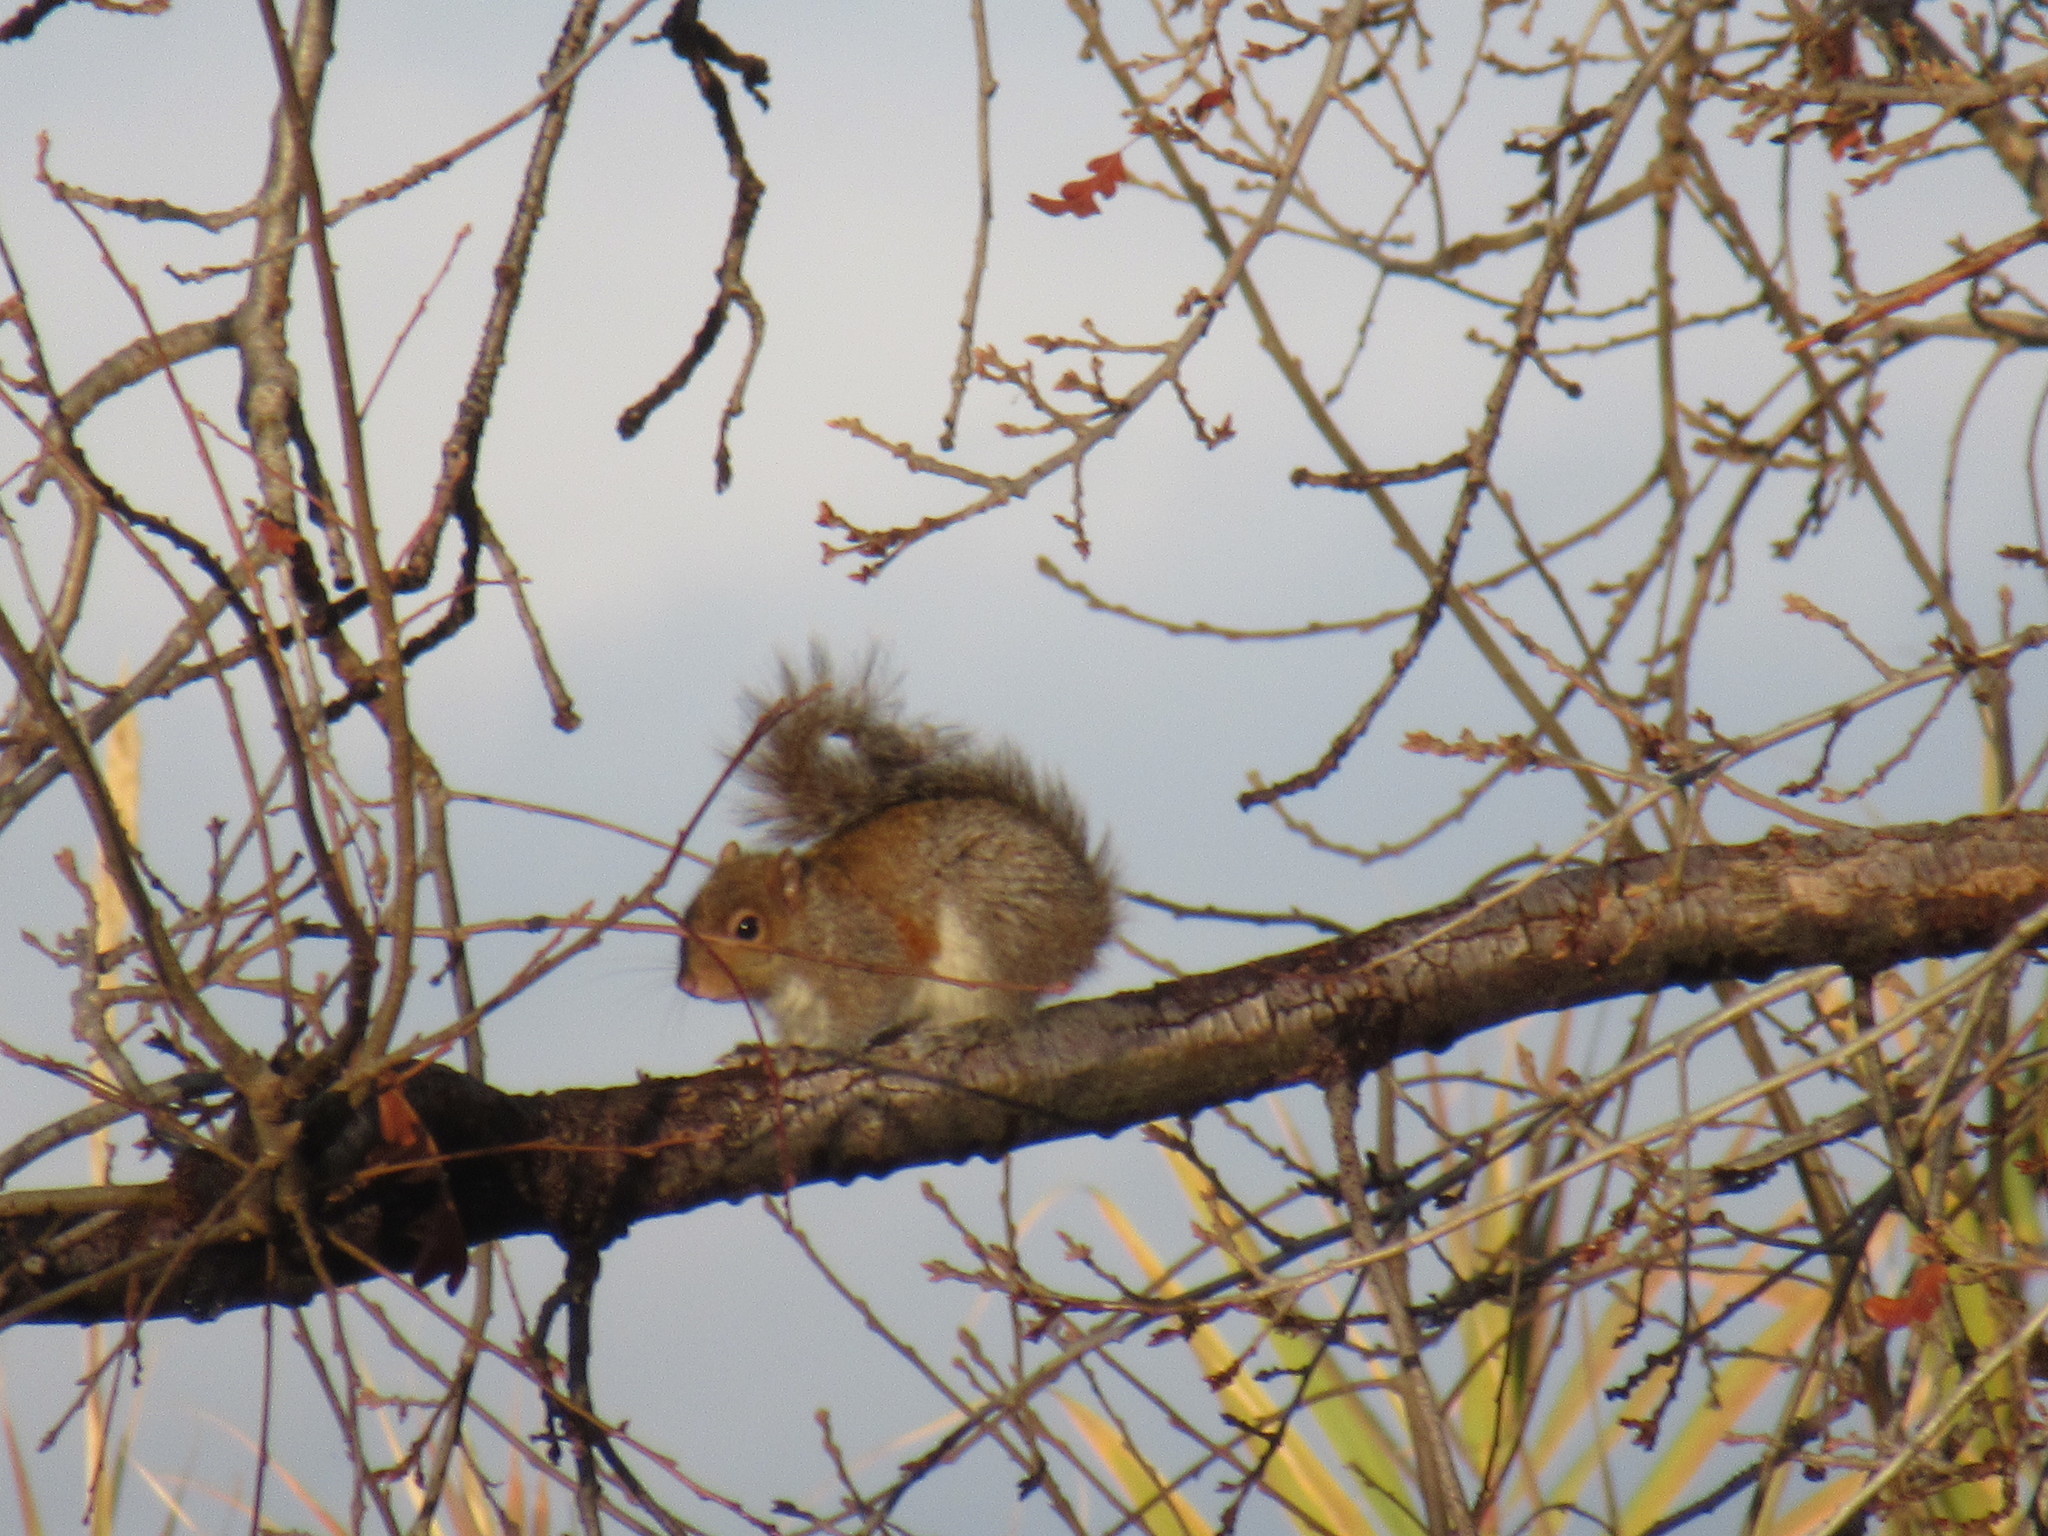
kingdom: Animalia
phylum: Chordata
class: Mammalia
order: Rodentia
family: Sciuridae
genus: Sciurus
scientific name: Sciurus carolinensis
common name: Eastern gray squirrel
